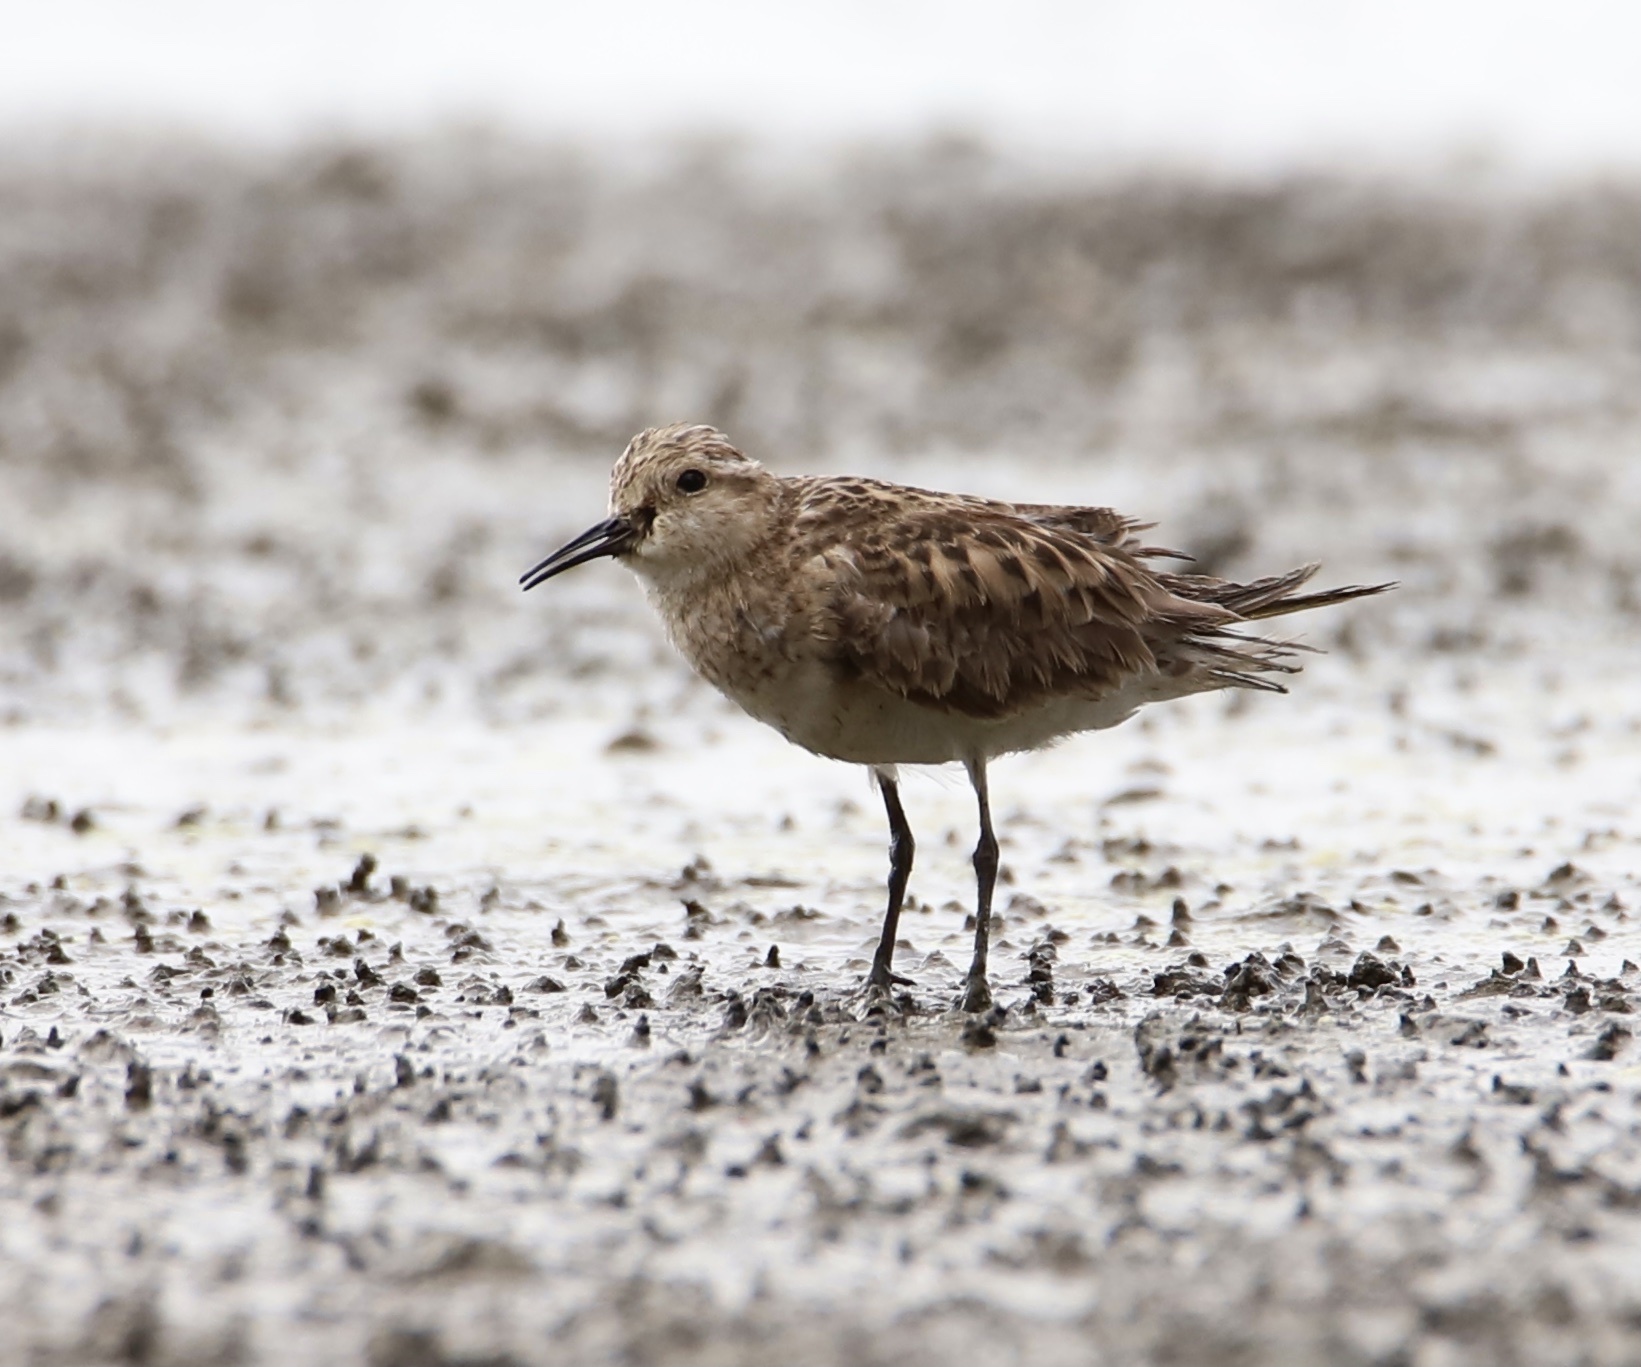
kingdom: Animalia
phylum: Chordata
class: Aves
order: Charadriiformes
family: Scolopacidae
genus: Calidris
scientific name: Calidris bairdii
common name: Baird's sandpiper
